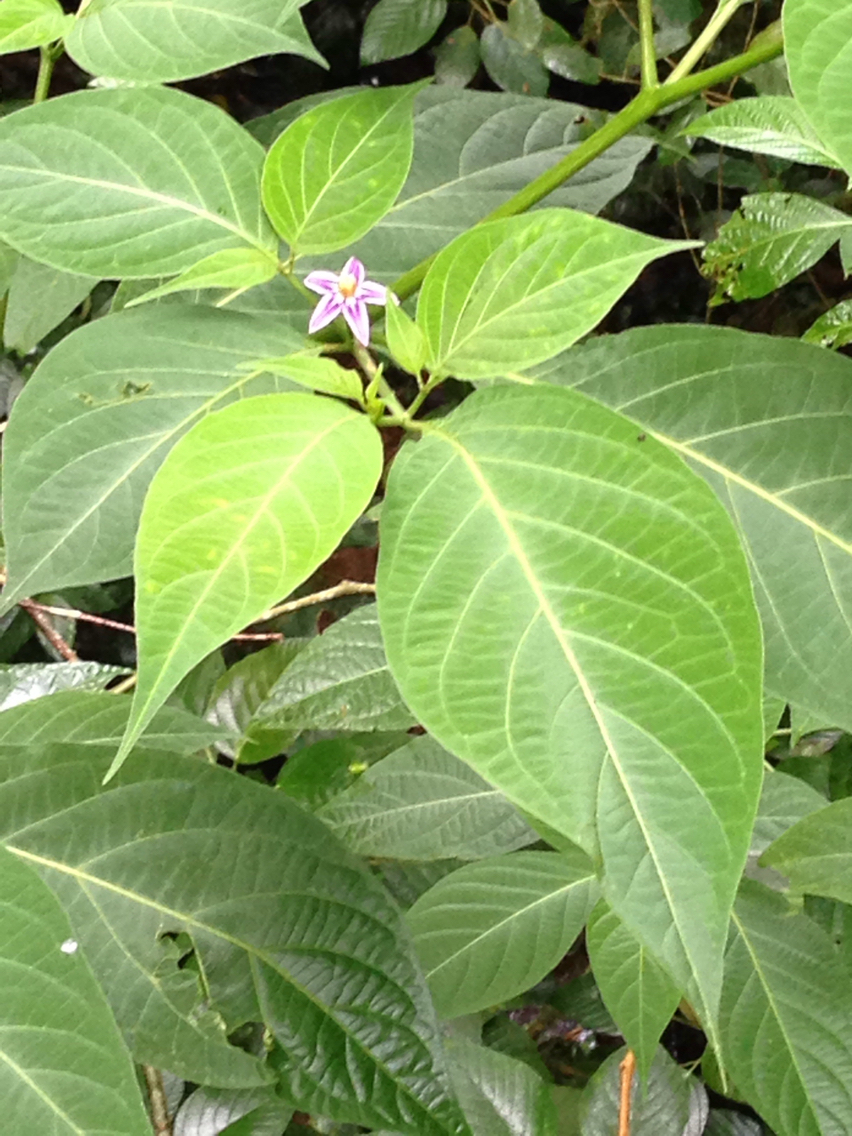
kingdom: Plantae
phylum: Tracheophyta
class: Magnoliopsida
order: Solanales
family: Solanaceae
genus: Lycianthes
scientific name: Lycianthes heteroclita
